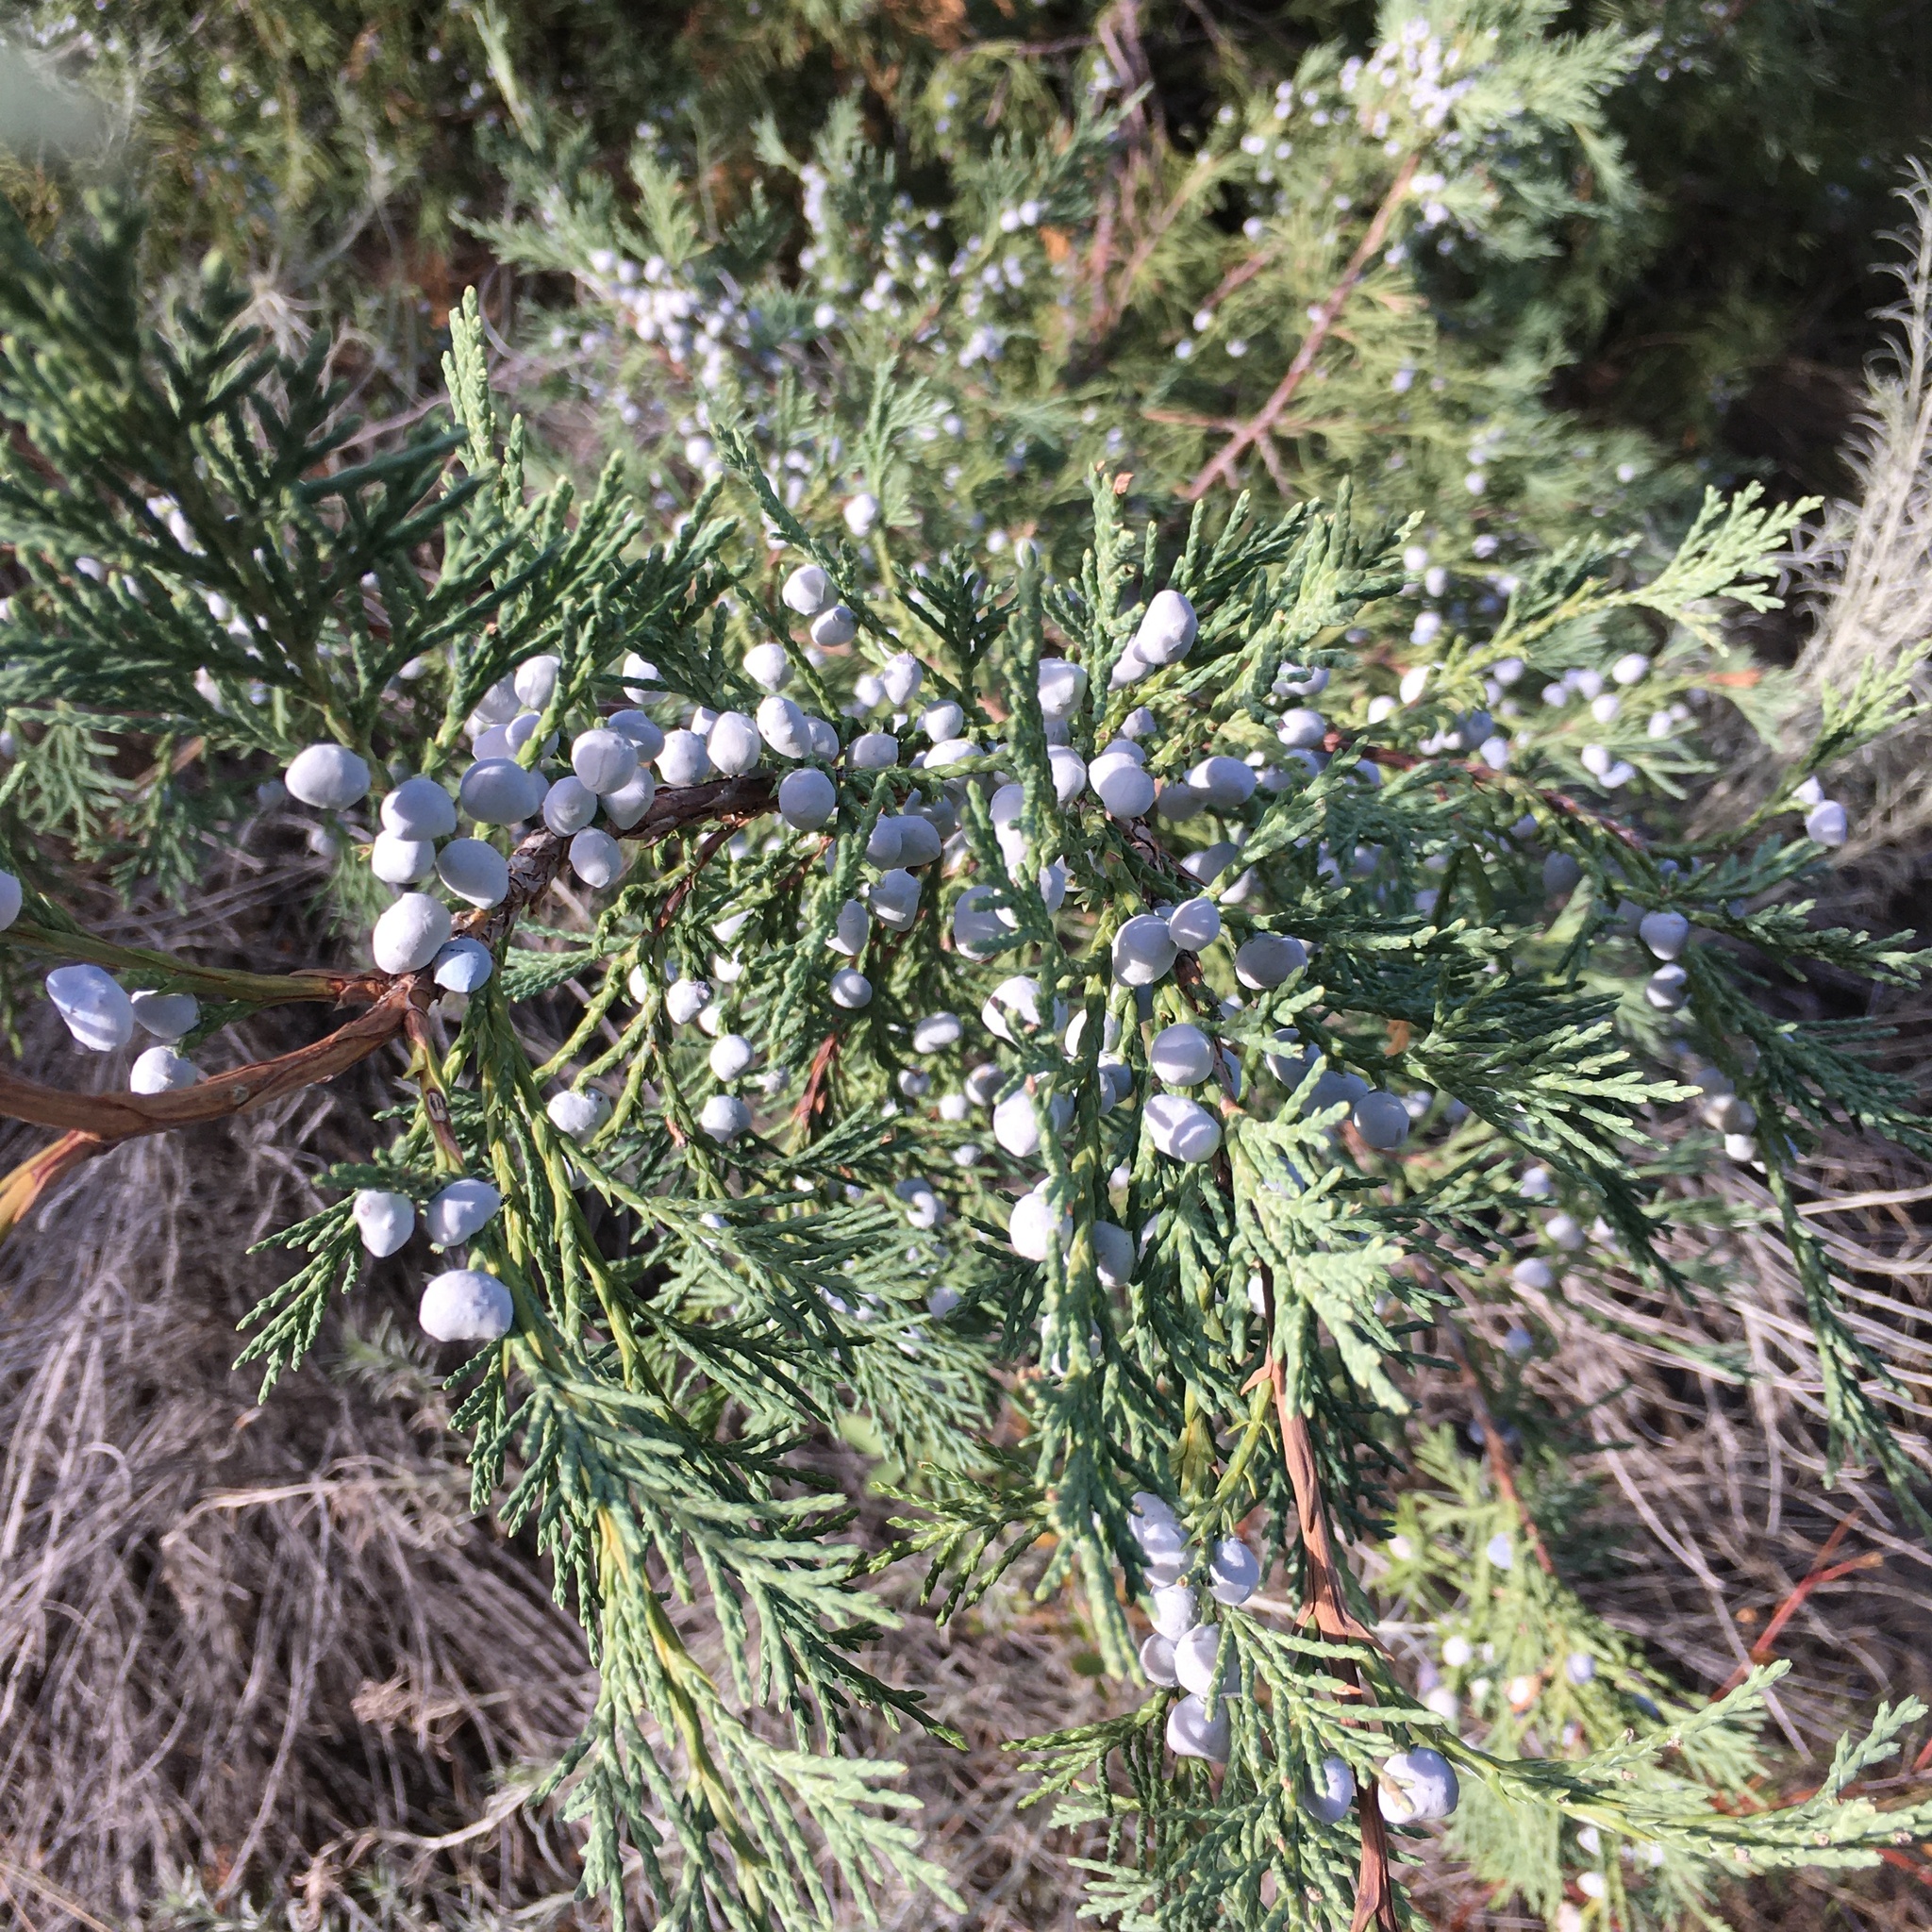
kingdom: Plantae
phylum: Tracheophyta
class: Pinopsida
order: Pinales
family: Cupressaceae
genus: Juniperus
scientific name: Juniperus scopulorum
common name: Rocky mountain juniper
